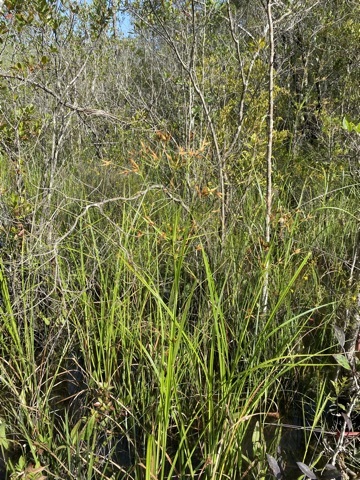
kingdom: Plantae
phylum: Tracheophyta
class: Liliopsida
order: Poales
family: Cyperaceae
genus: Rhynchospora
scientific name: Rhynchospora careyana
